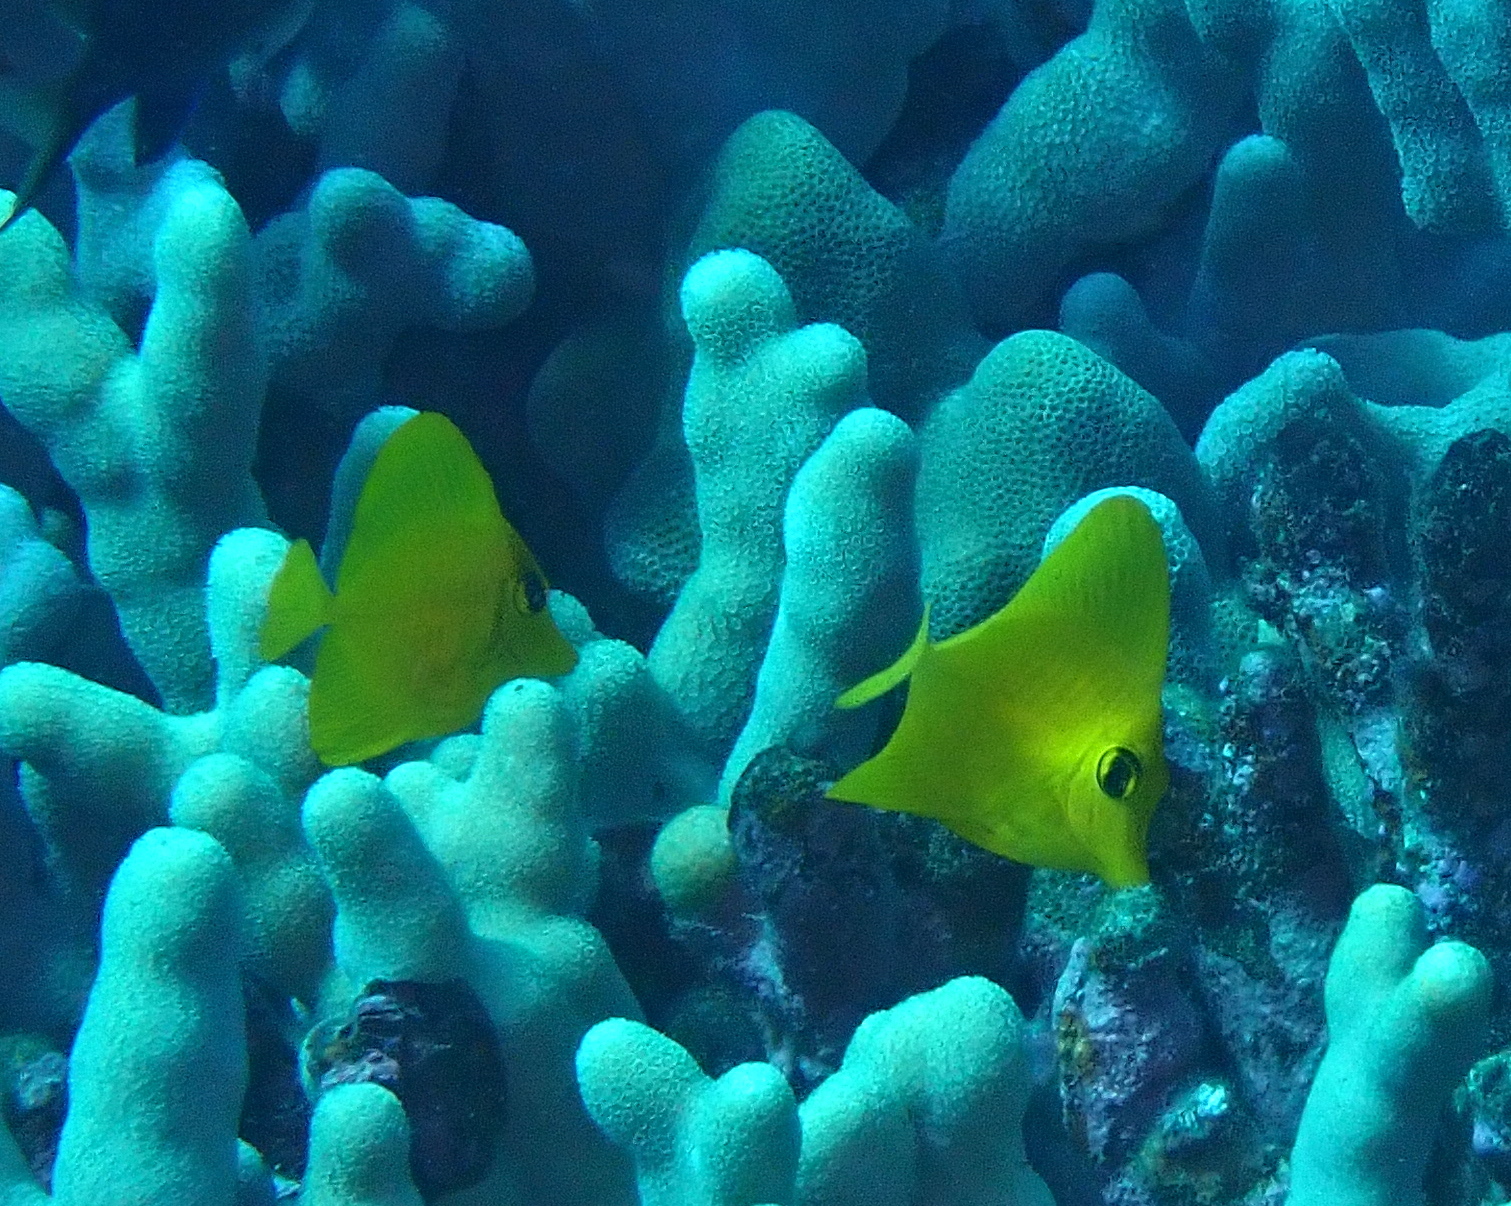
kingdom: Animalia
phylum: Chordata
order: Perciformes
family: Acanthuridae
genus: Zebrasoma
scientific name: Zebrasoma flavescens
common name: Yellow tang
